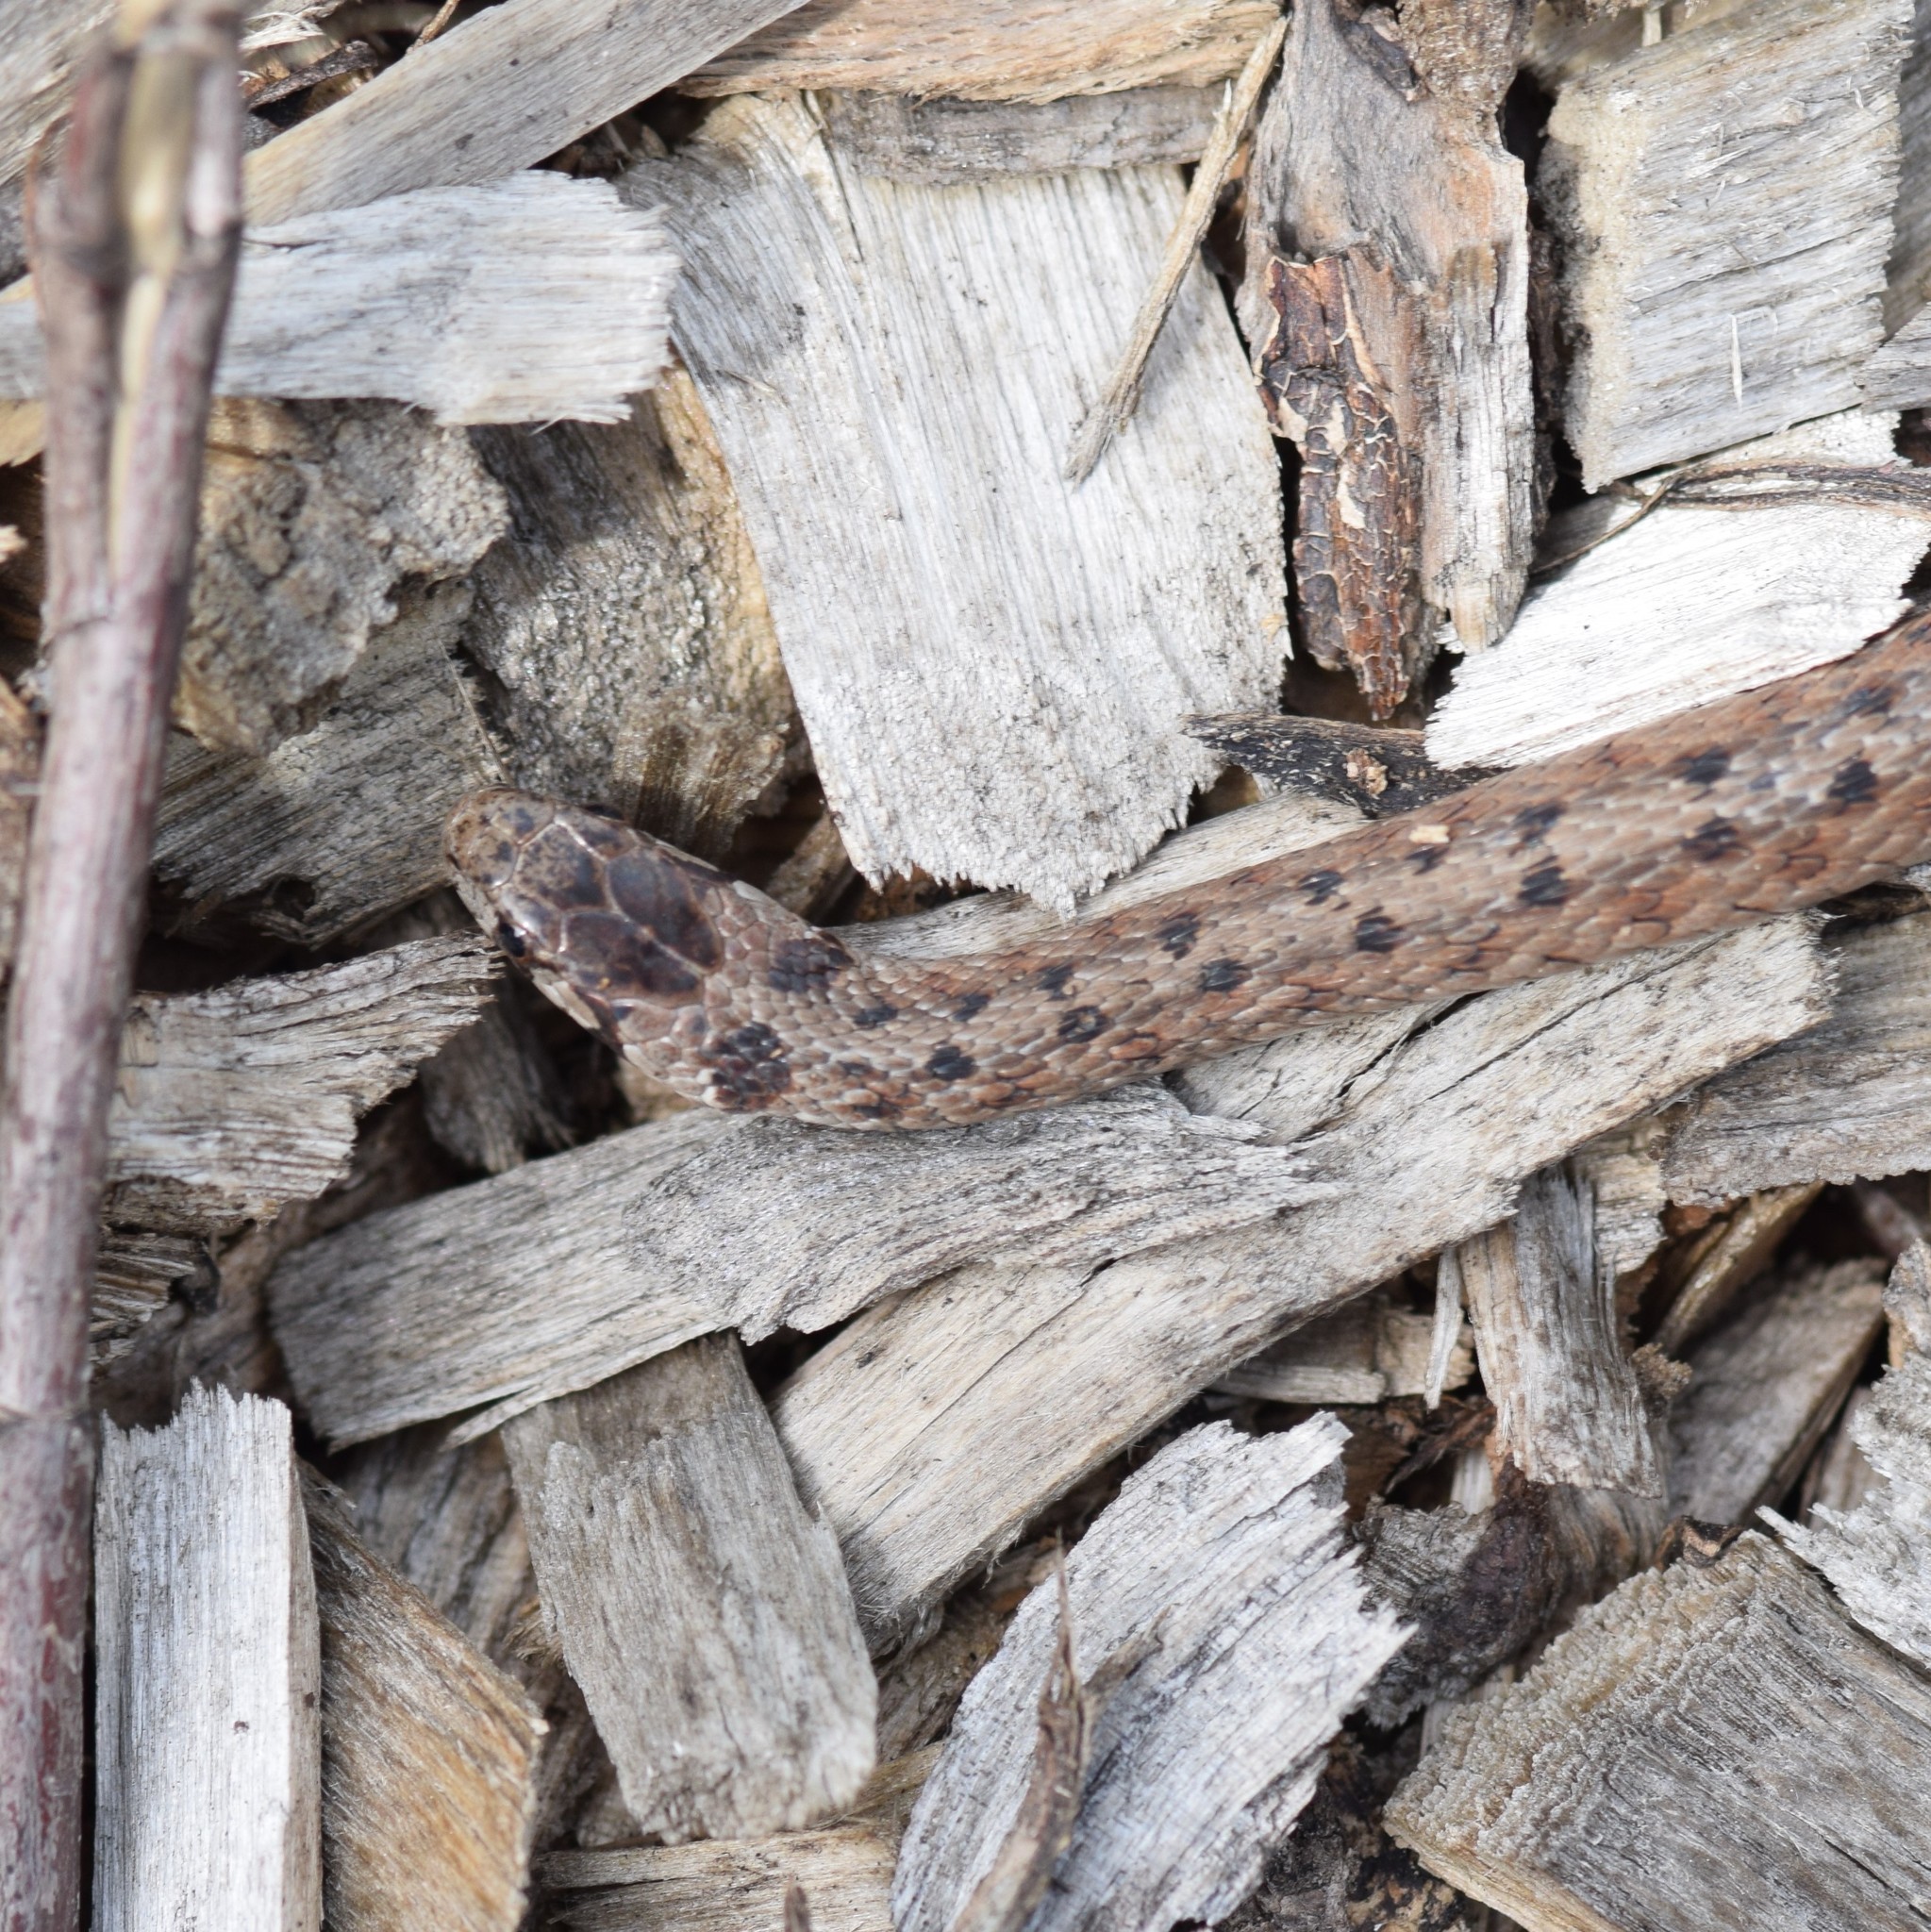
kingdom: Animalia
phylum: Chordata
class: Squamata
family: Colubridae
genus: Storeria
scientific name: Storeria dekayi
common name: (dekay’s) brown snake
